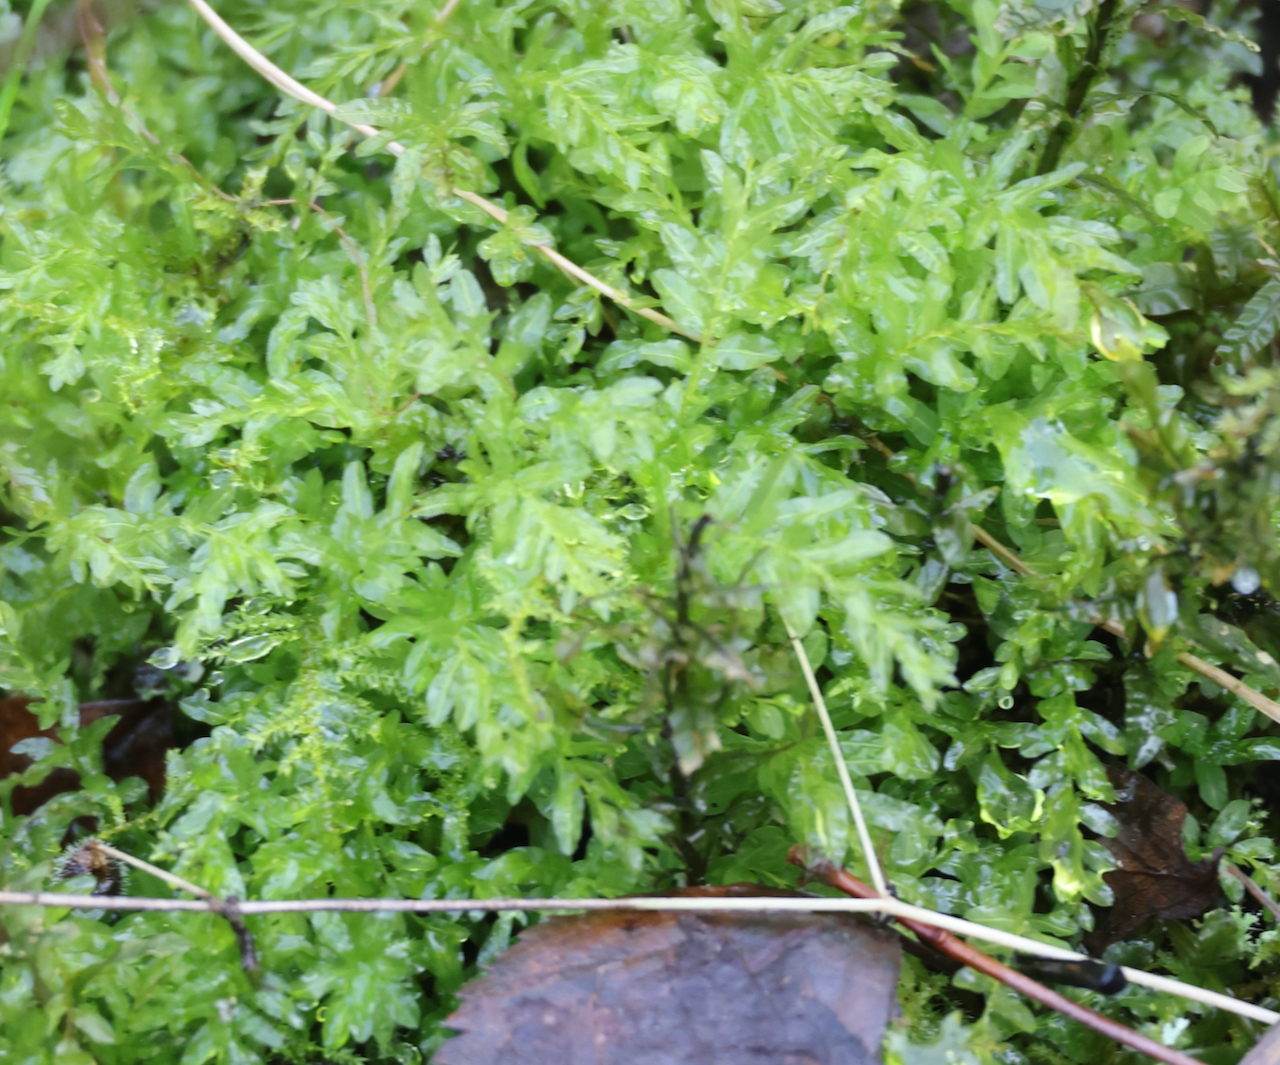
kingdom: Plantae
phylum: Bryophyta
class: Bryopsida
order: Bryales
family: Mniaceae
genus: Plagiomnium
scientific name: Plagiomnium undulatum
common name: Hart's-tongue thyme-moss
